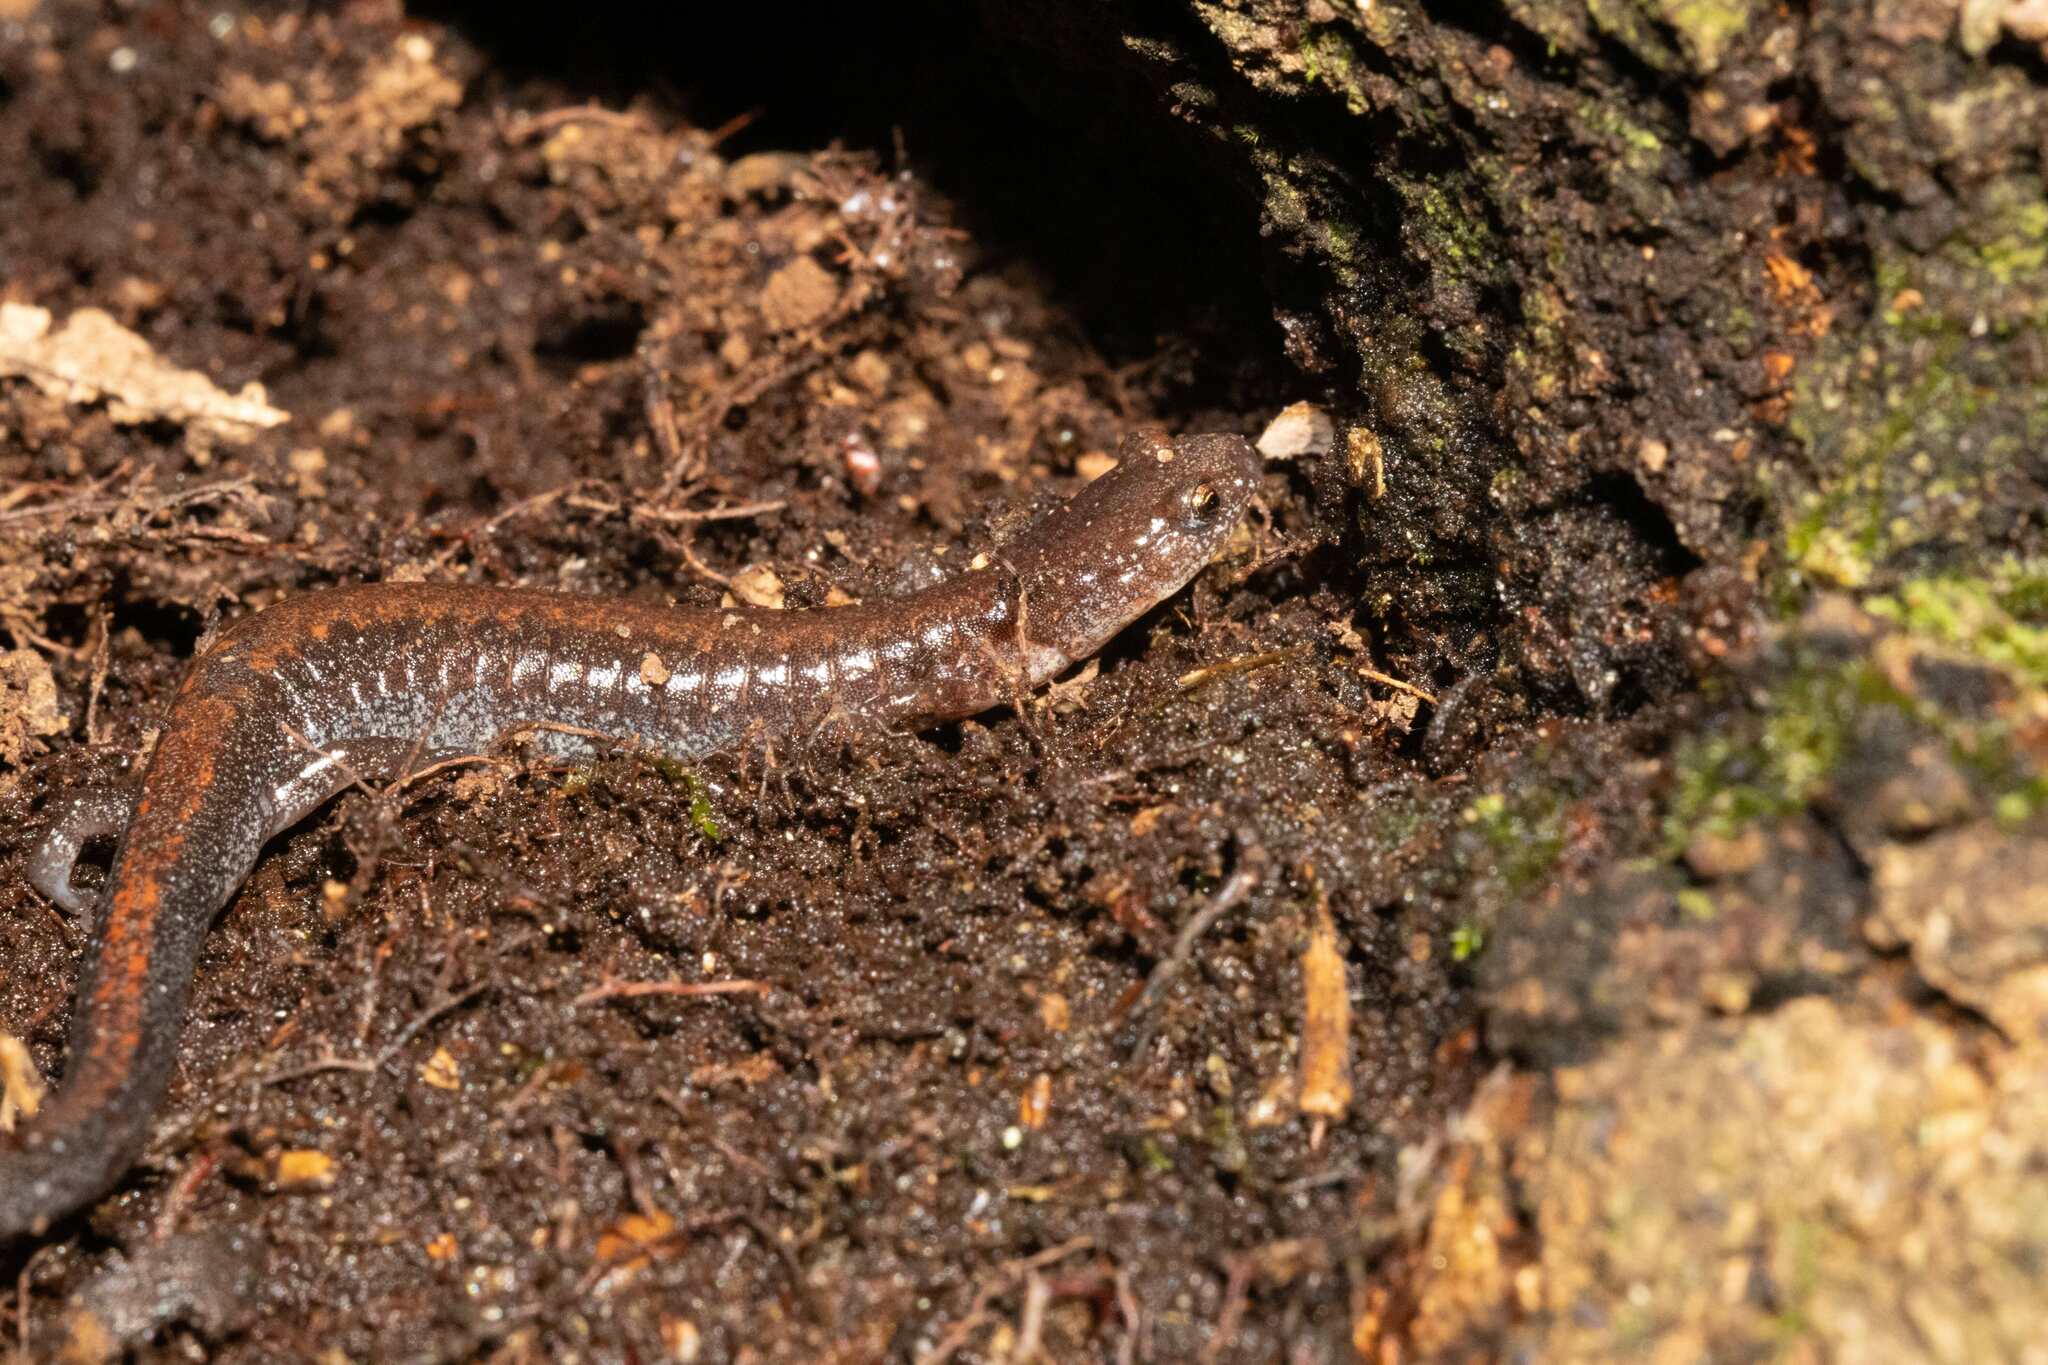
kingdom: Animalia
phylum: Chordata
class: Amphibia
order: Caudata
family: Plethodontidae
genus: Plethodon
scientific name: Plethodon serratus
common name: Southern red-backed salamander
